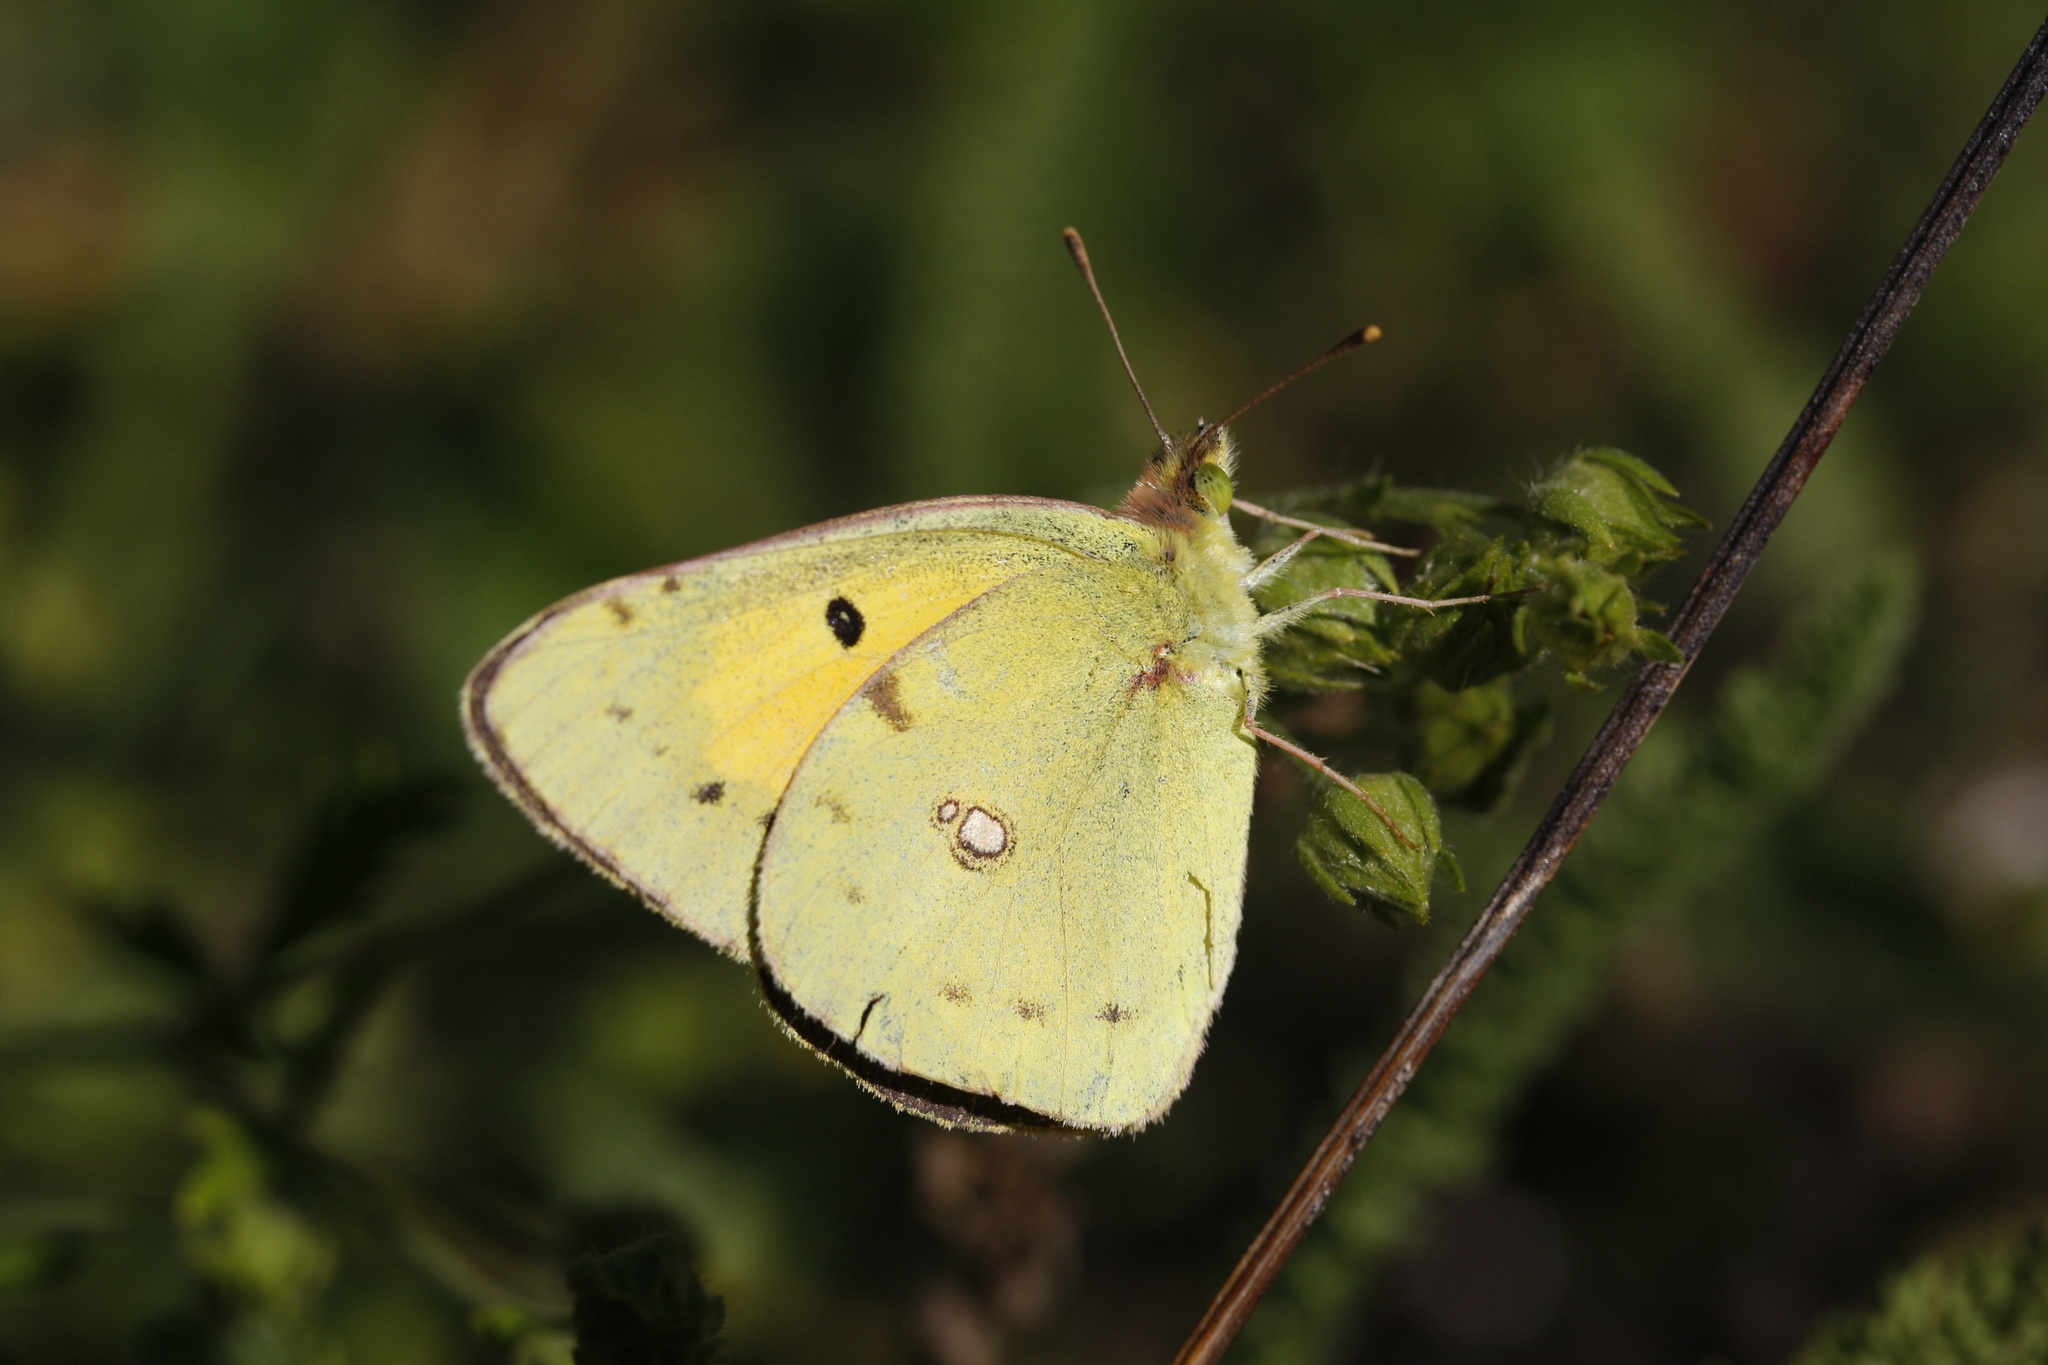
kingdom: Animalia
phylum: Arthropoda
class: Insecta
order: Lepidoptera
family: Pieridae
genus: Colias
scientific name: Colias croceus
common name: Clouded yellow
